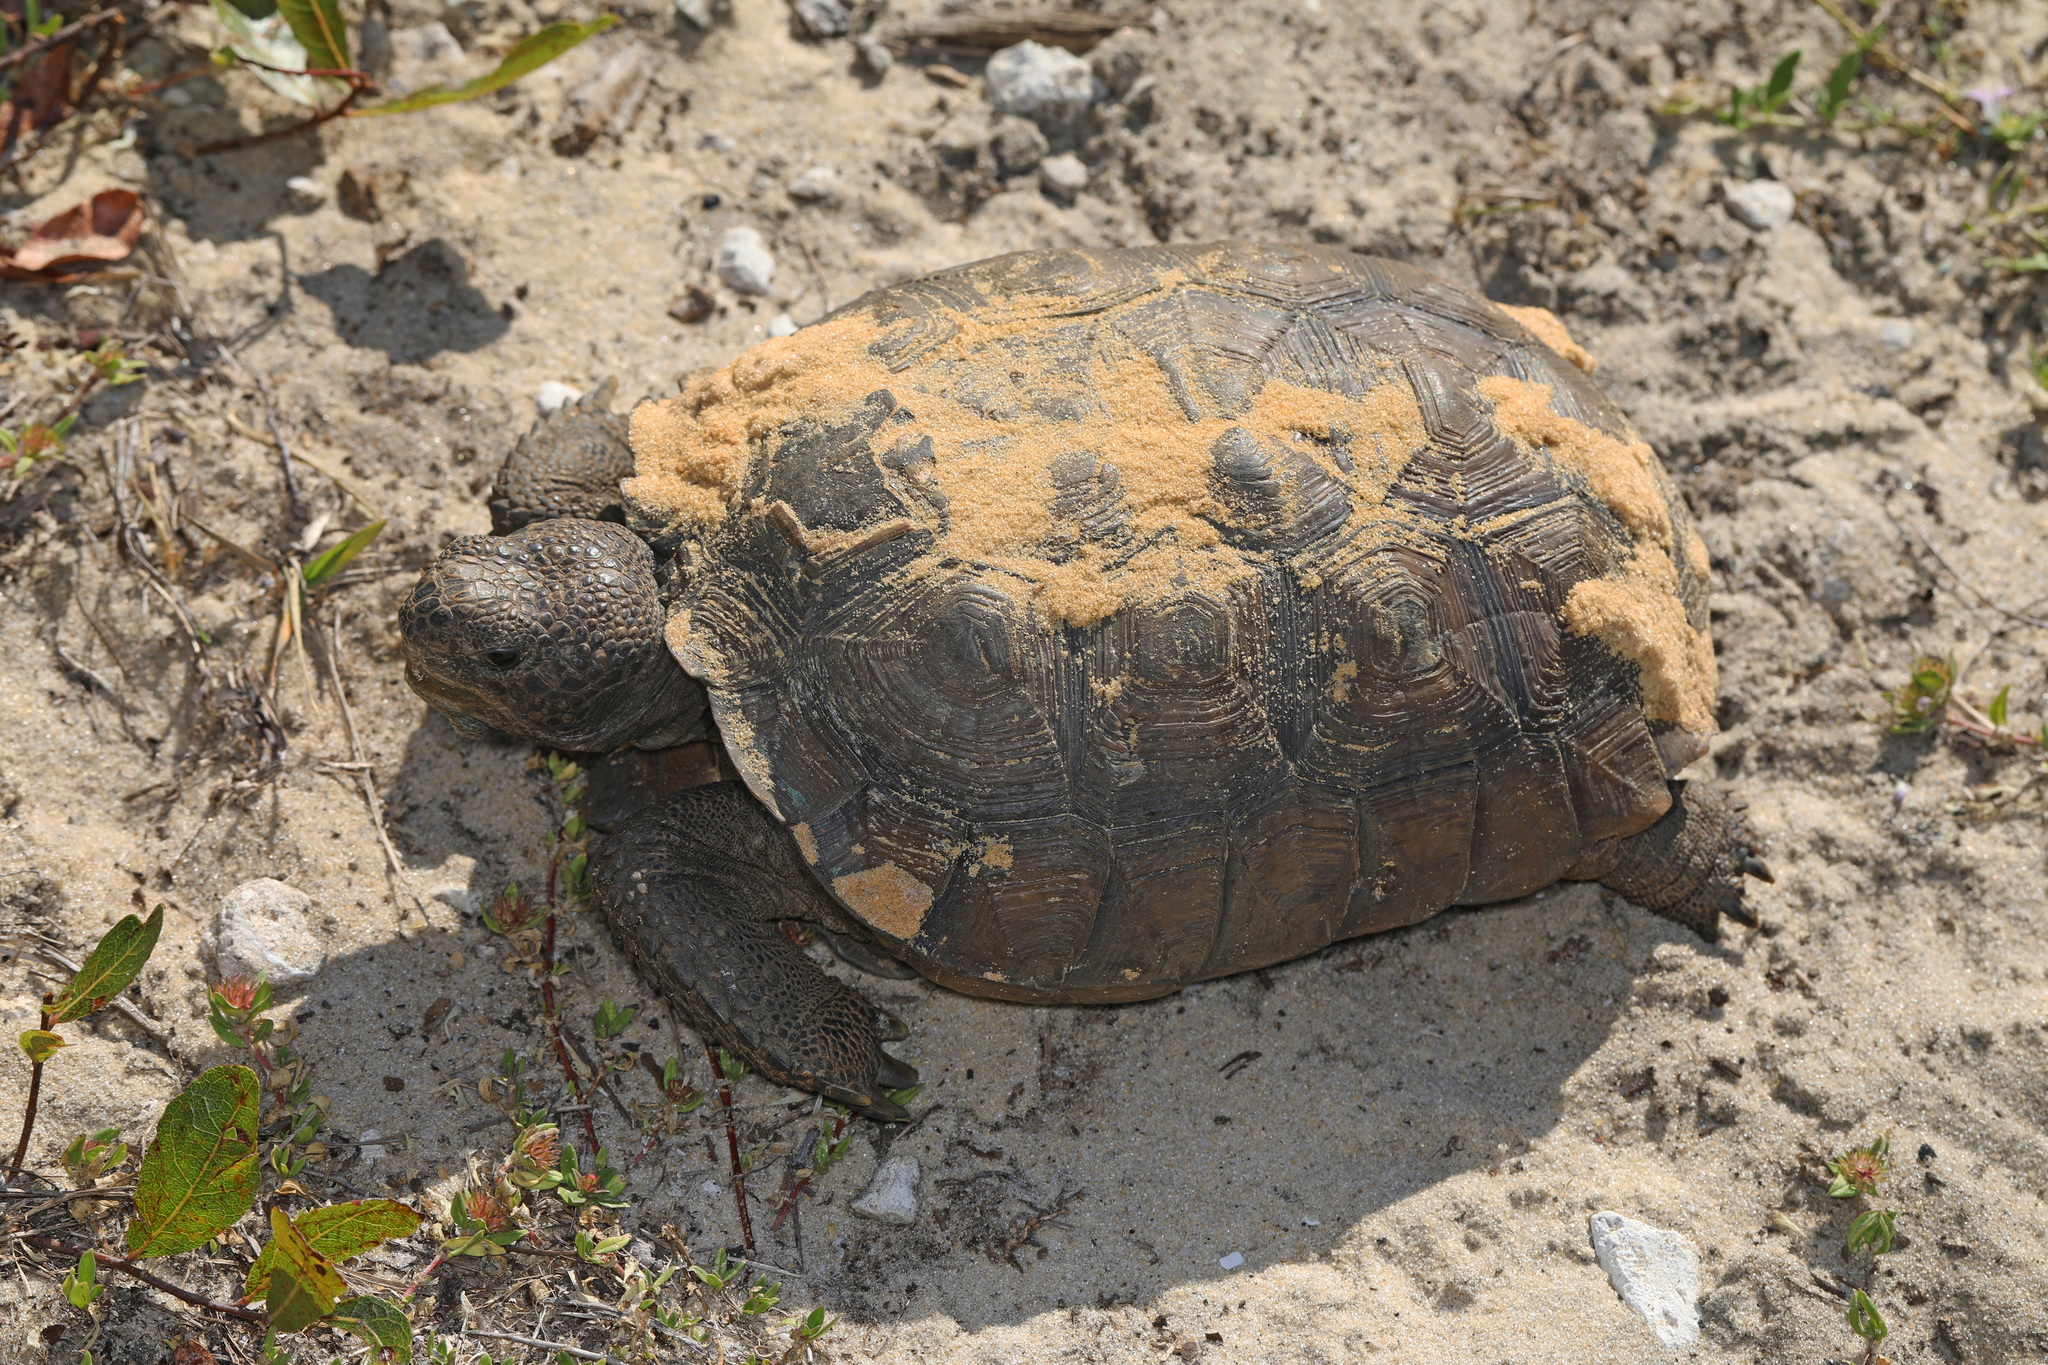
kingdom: Animalia
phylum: Chordata
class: Testudines
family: Testudinidae
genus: Gopherus
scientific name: Gopherus polyphemus
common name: Florida gopher tortoise
